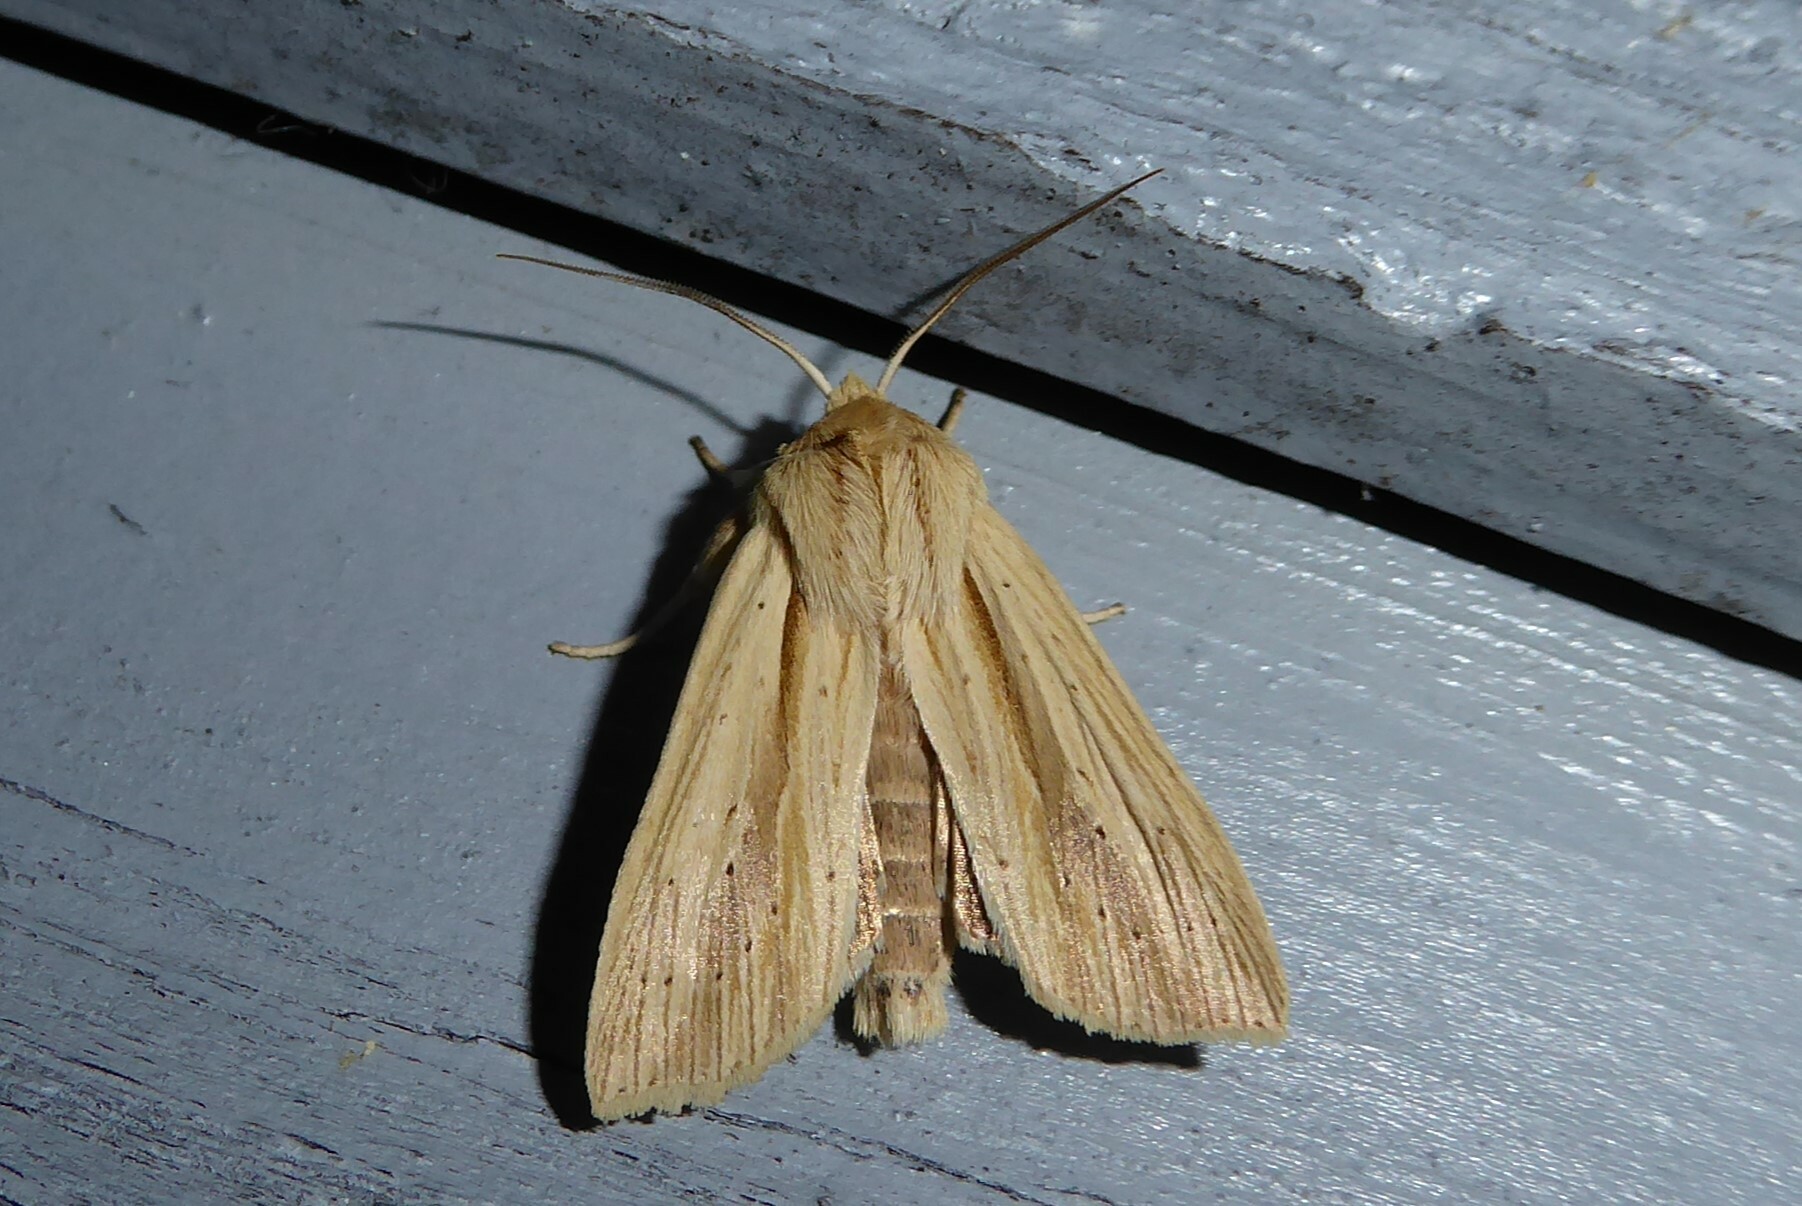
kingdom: Animalia
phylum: Arthropoda
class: Insecta
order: Lepidoptera
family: Noctuidae
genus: Ichneutica
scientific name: Ichneutica semivittata
